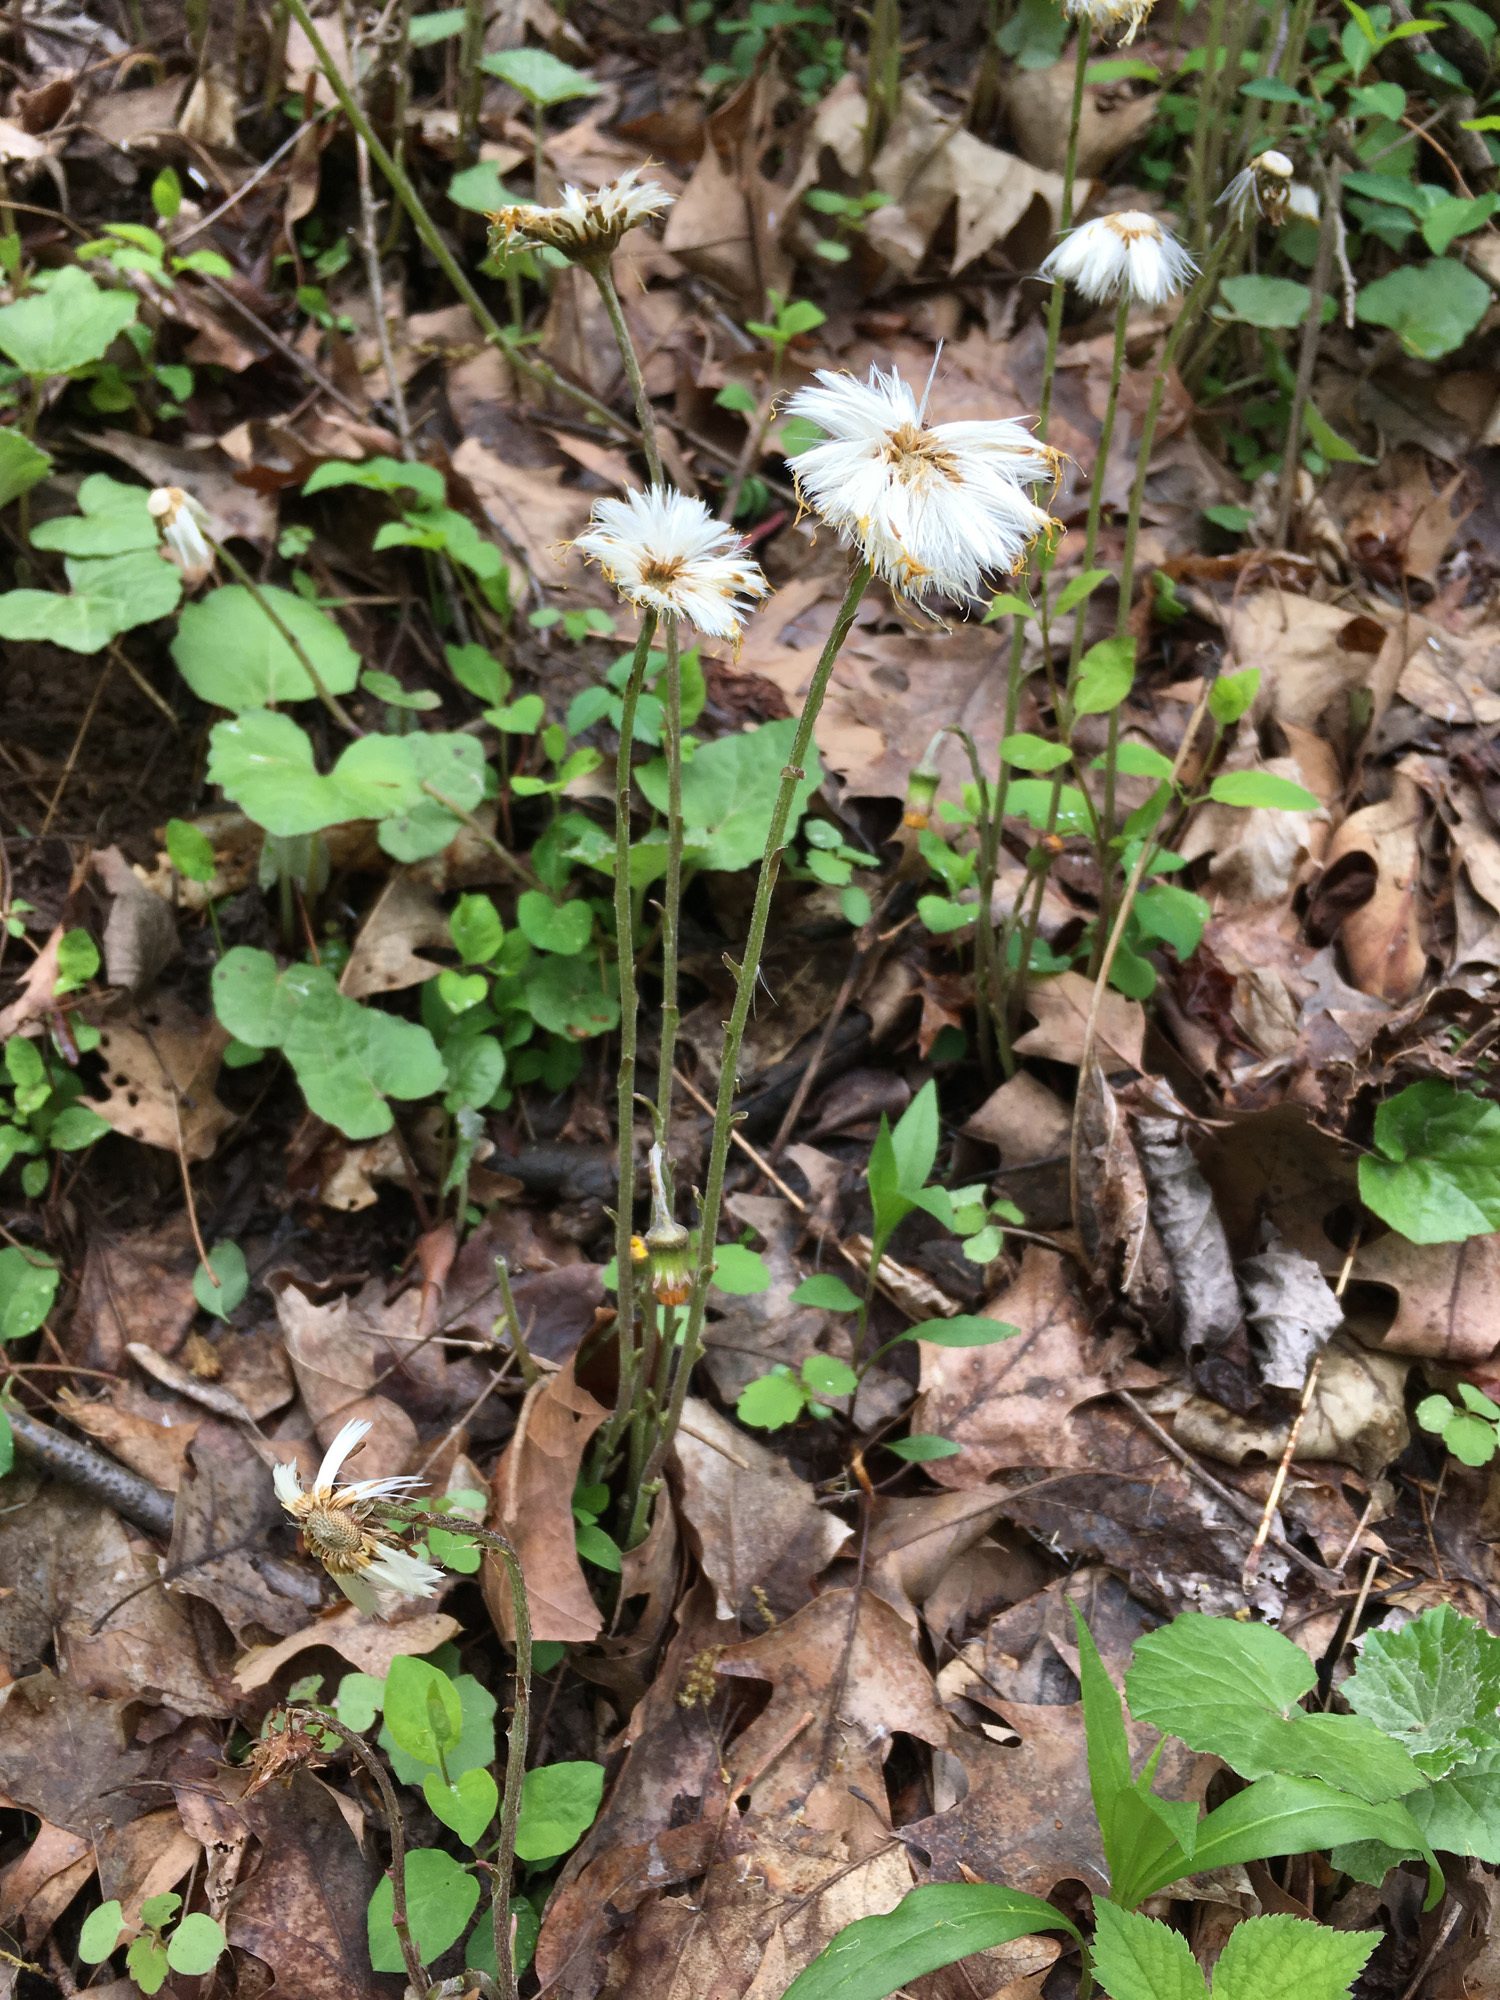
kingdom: Plantae
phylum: Tracheophyta
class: Magnoliopsida
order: Asterales
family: Asteraceae
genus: Tussilago
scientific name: Tussilago farfara
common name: Coltsfoot
